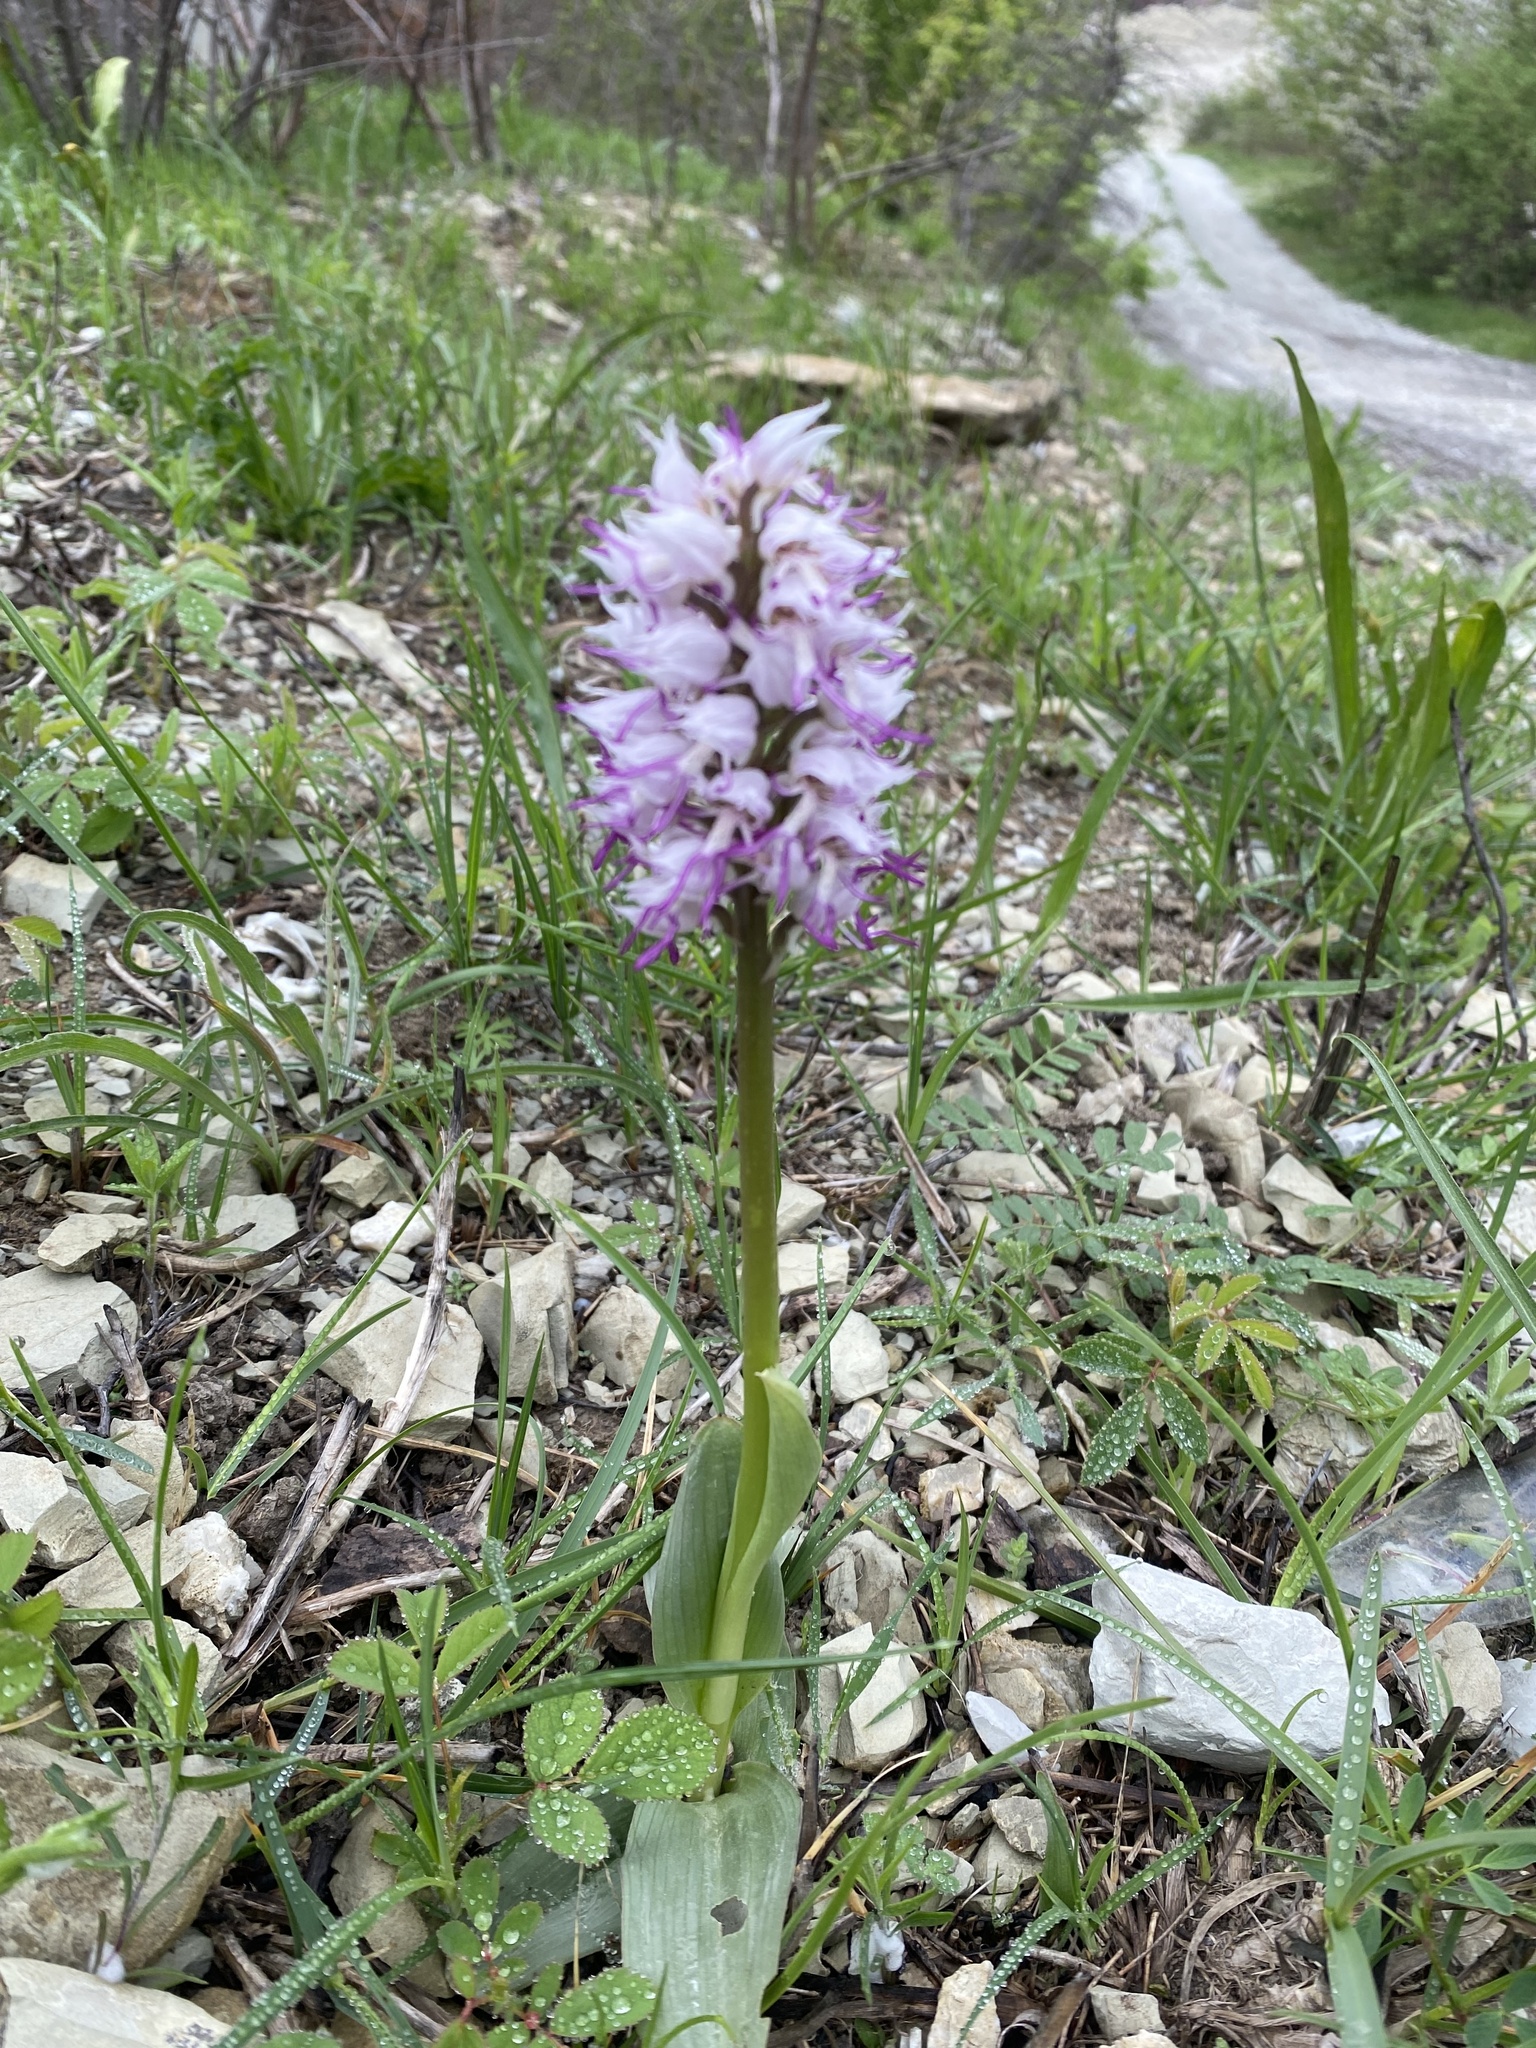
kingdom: Plantae
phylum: Tracheophyta
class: Liliopsida
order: Asparagales
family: Orchidaceae
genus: Orchis
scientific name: Orchis simia
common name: Monkey orchid
